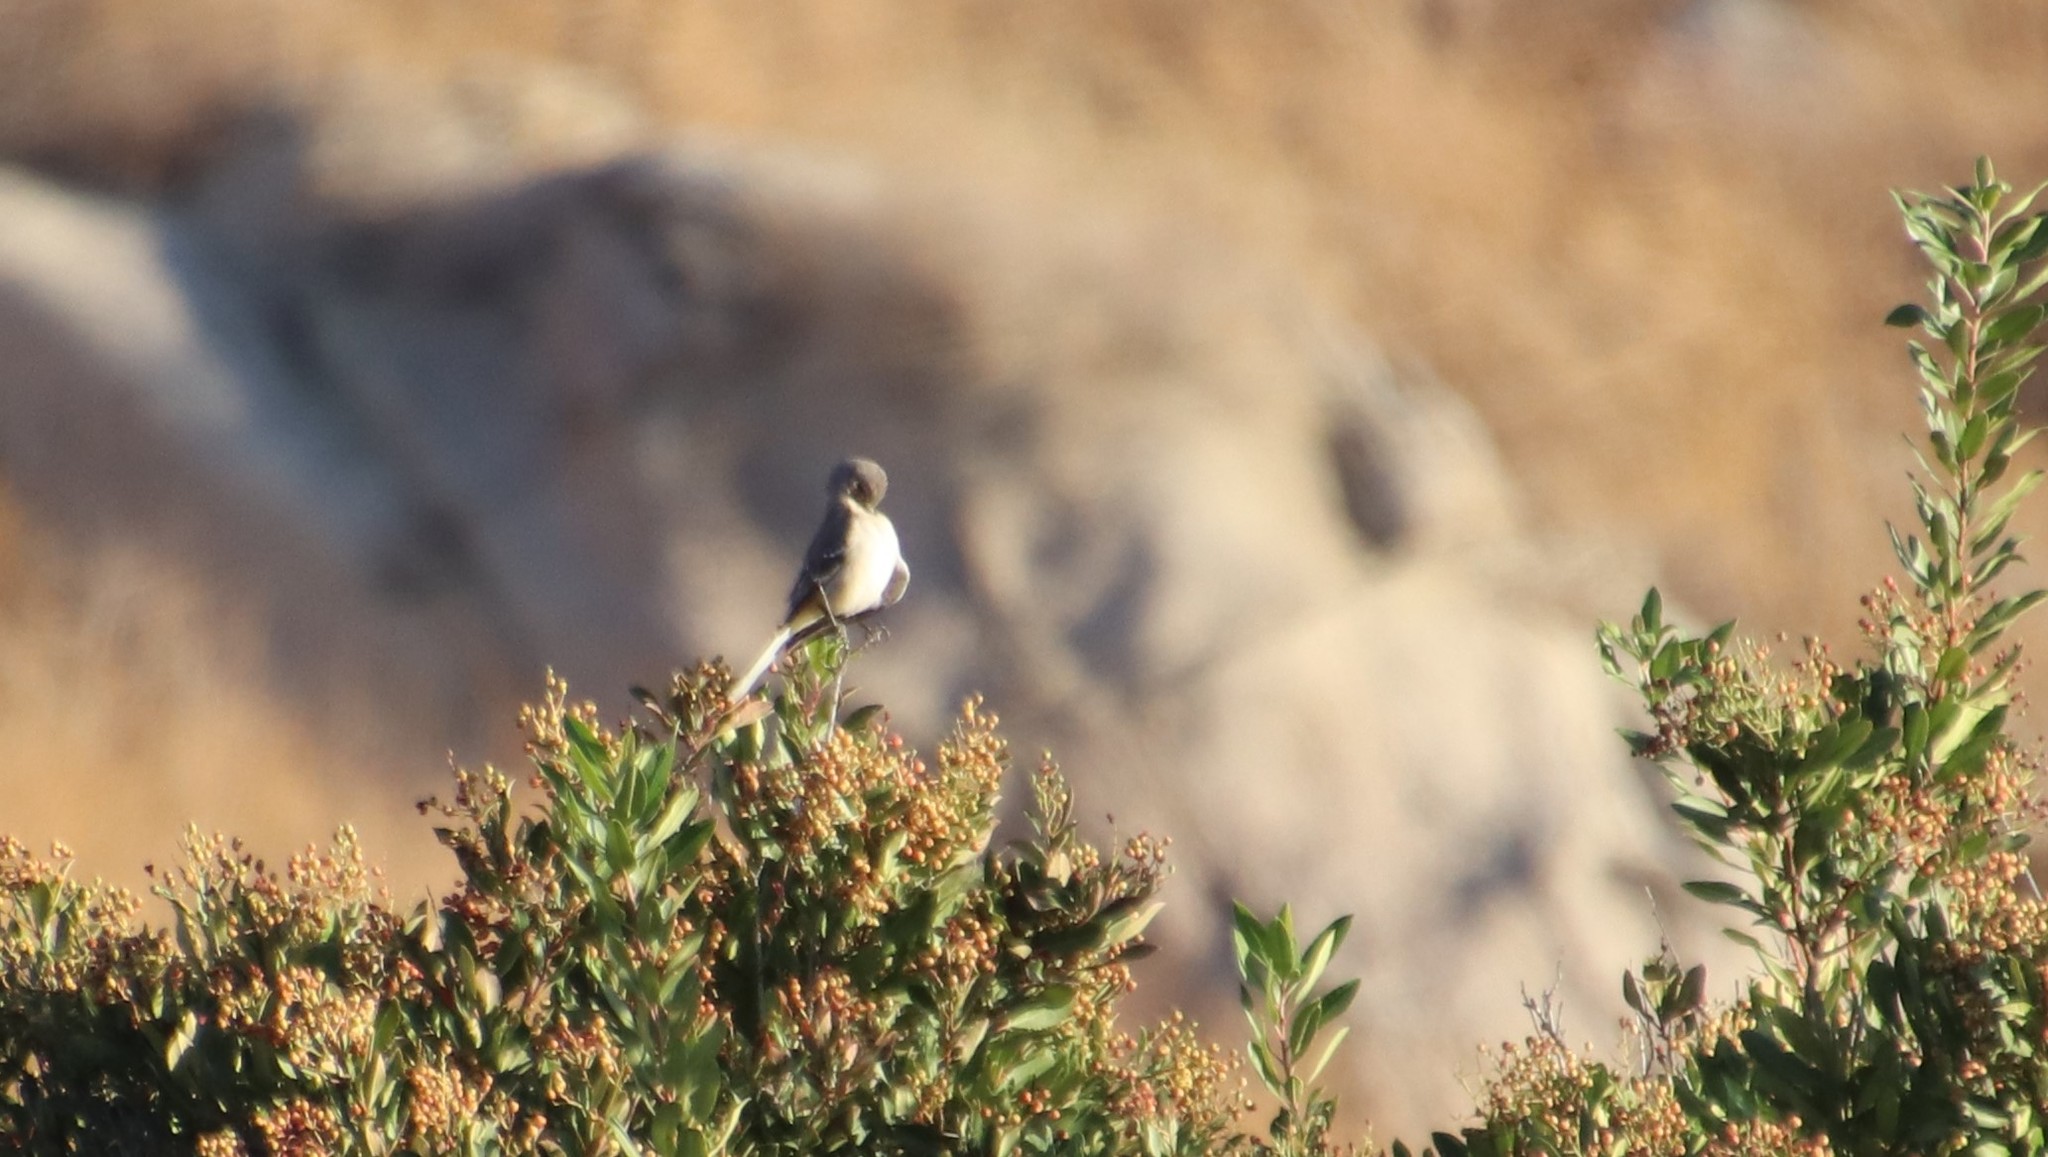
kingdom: Animalia
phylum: Chordata
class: Aves
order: Passeriformes
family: Mimidae
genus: Mimus
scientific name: Mimus polyglottos
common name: Northern mockingbird
